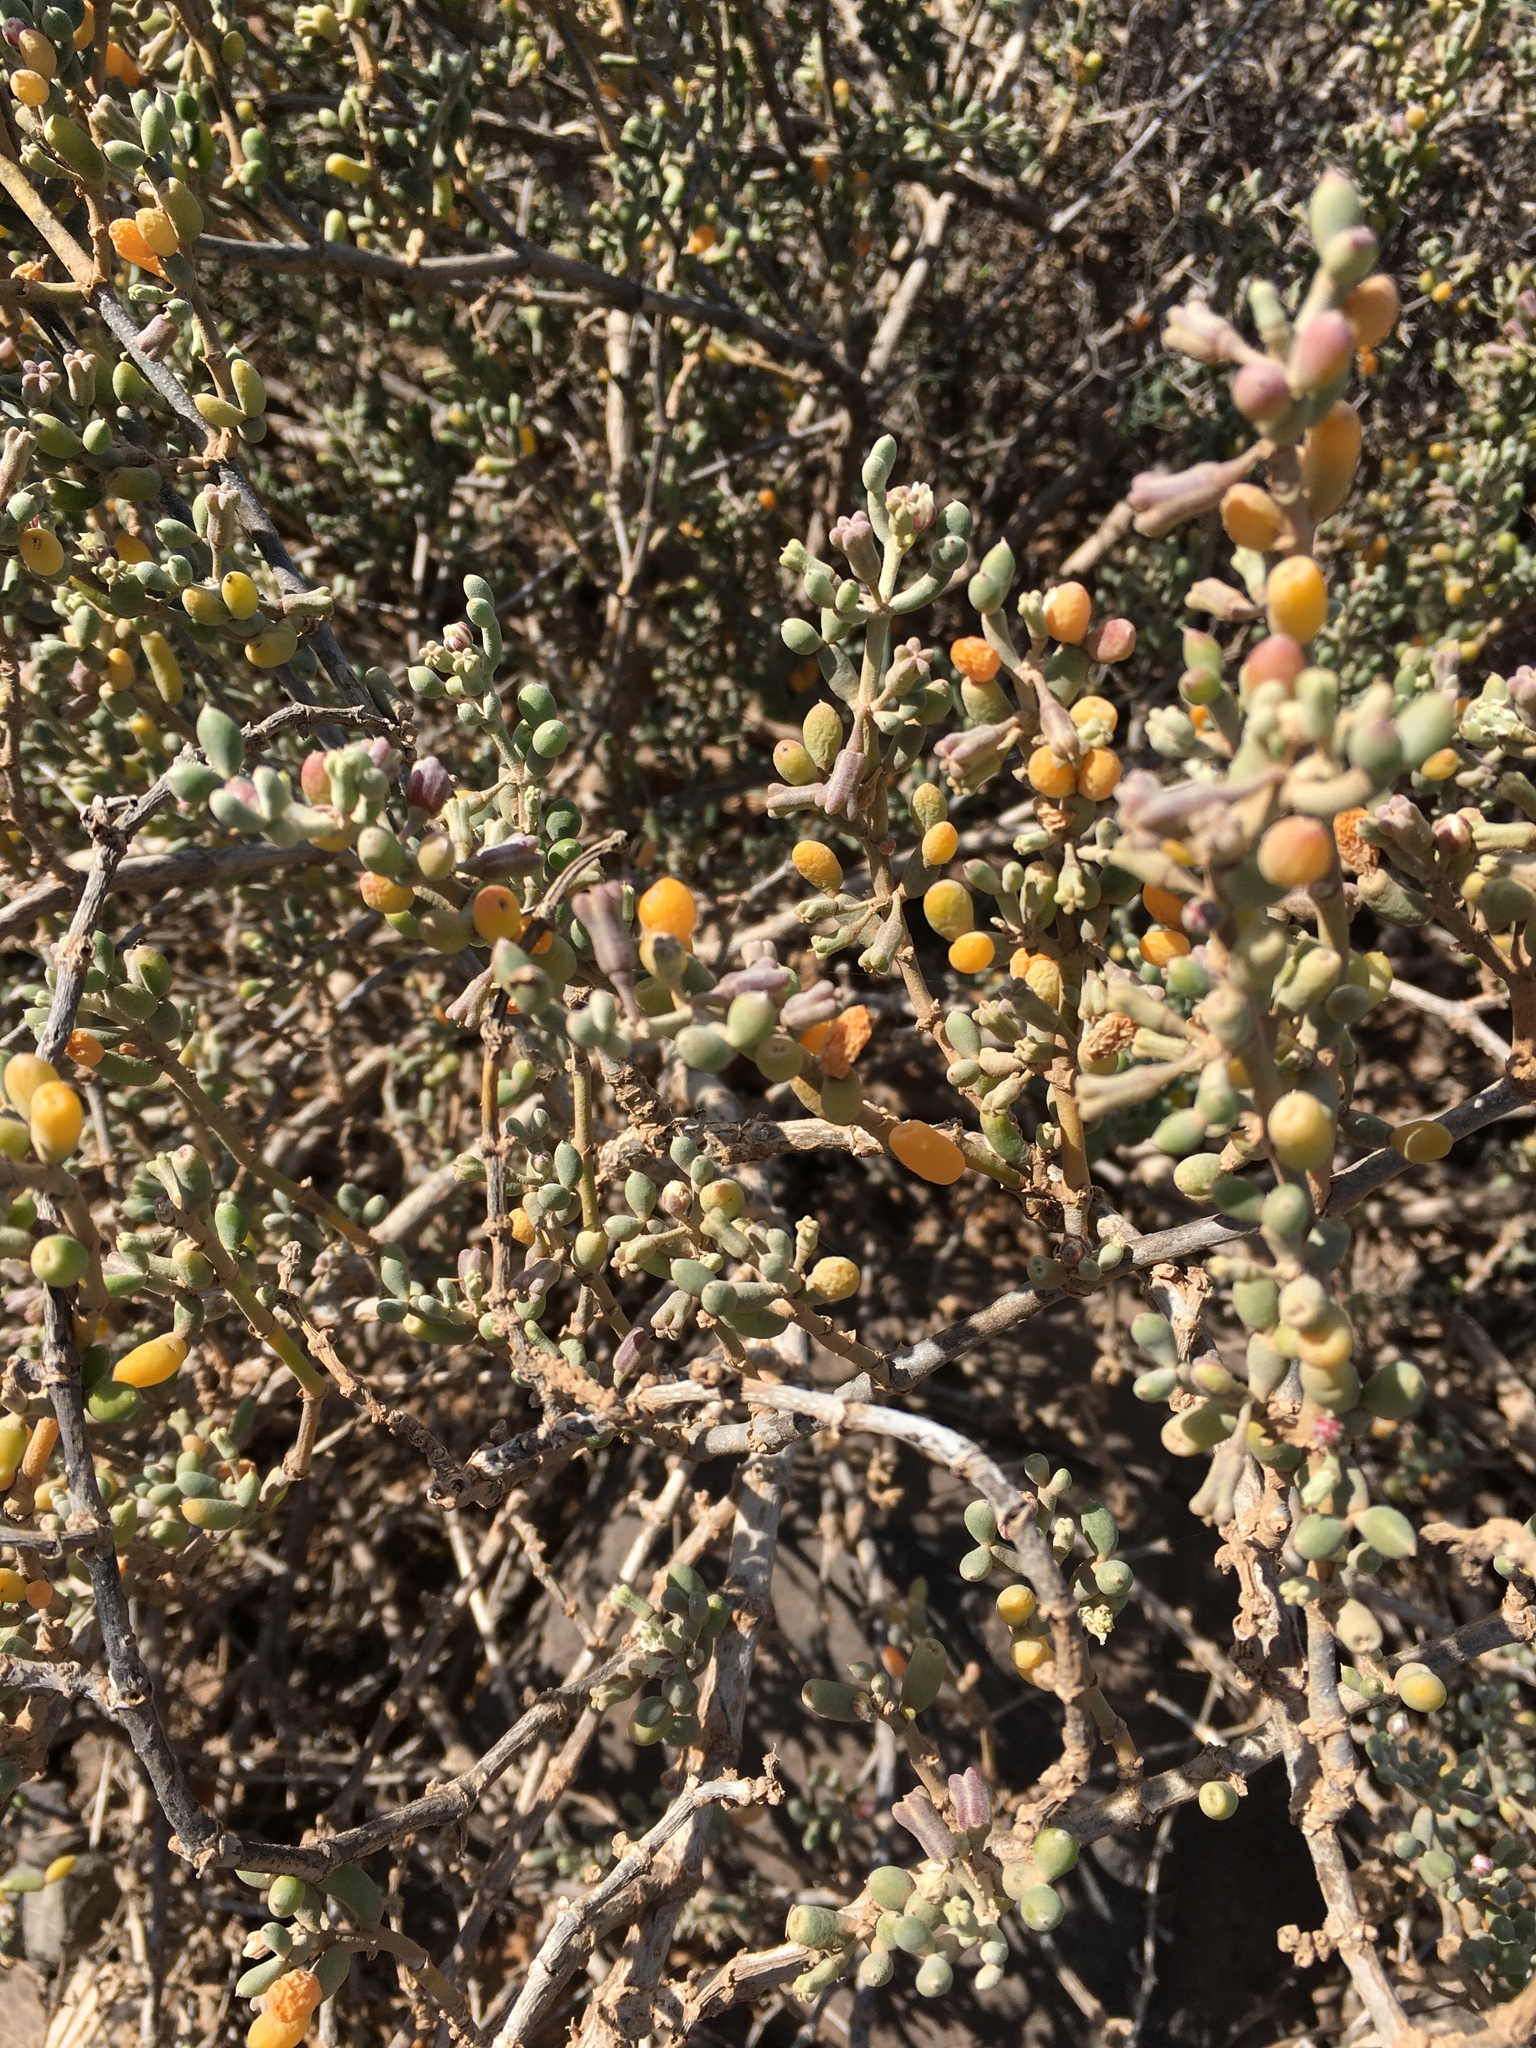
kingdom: Plantae
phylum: Tracheophyta
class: Magnoliopsida
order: Zygophyllales
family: Zygophyllaceae
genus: Tetraena
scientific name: Tetraena fontanesii
